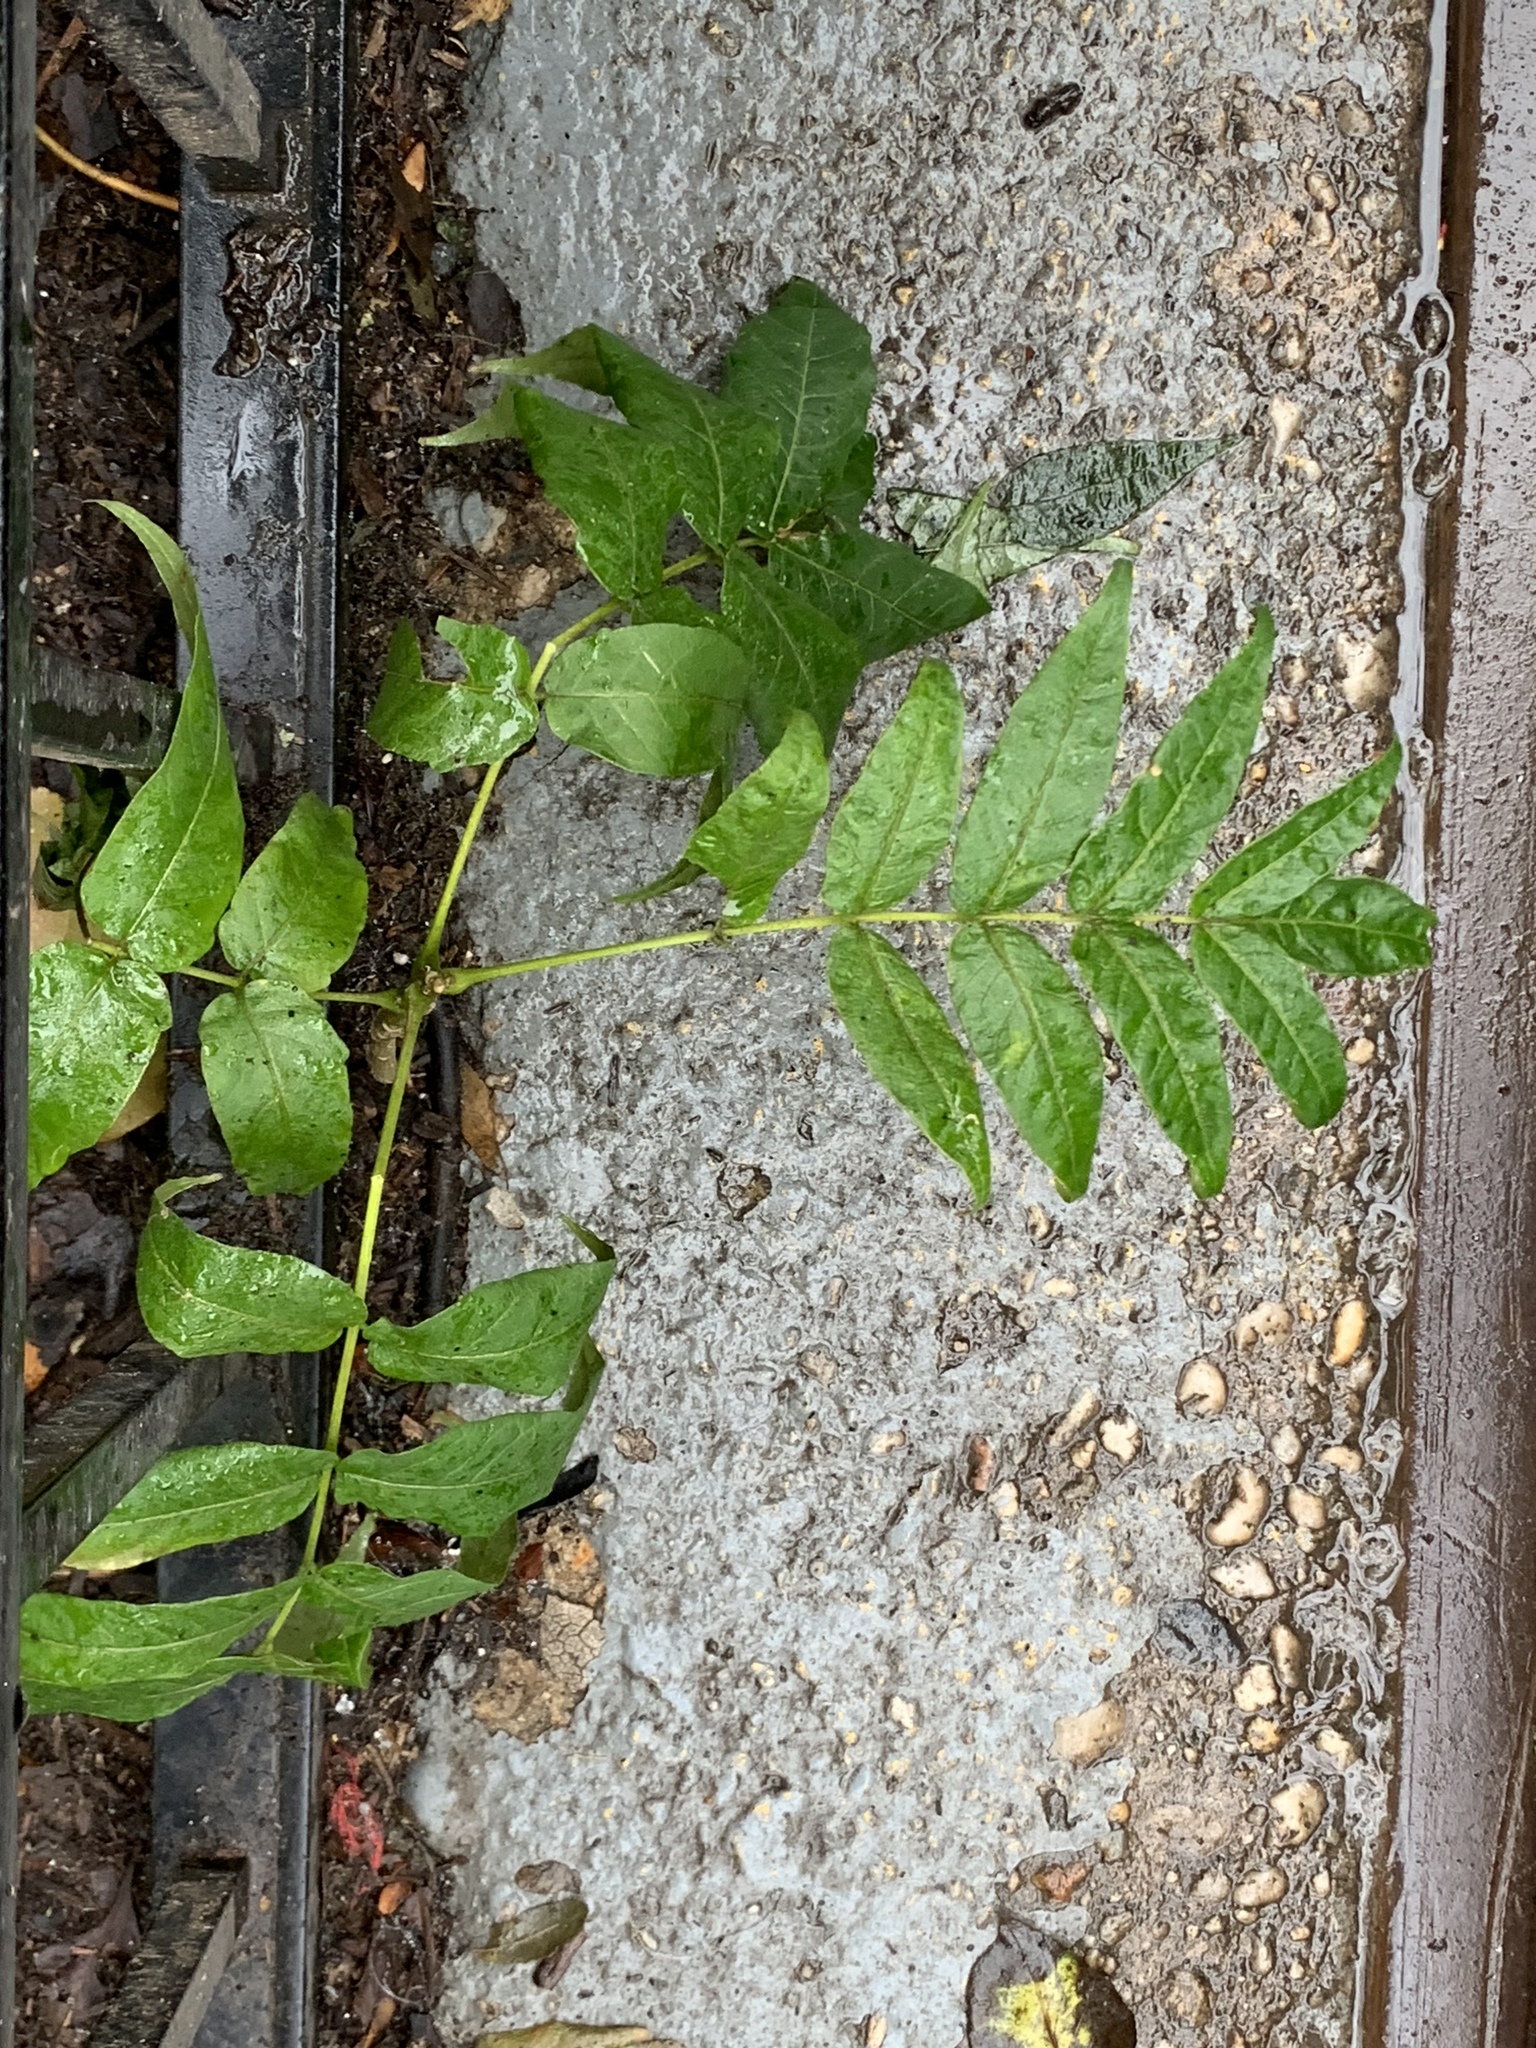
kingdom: Plantae
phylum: Tracheophyta
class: Magnoliopsida
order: Sapindales
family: Simaroubaceae
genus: Ailanthus
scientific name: Ailanthus altissima
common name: Tree-of-heaven
